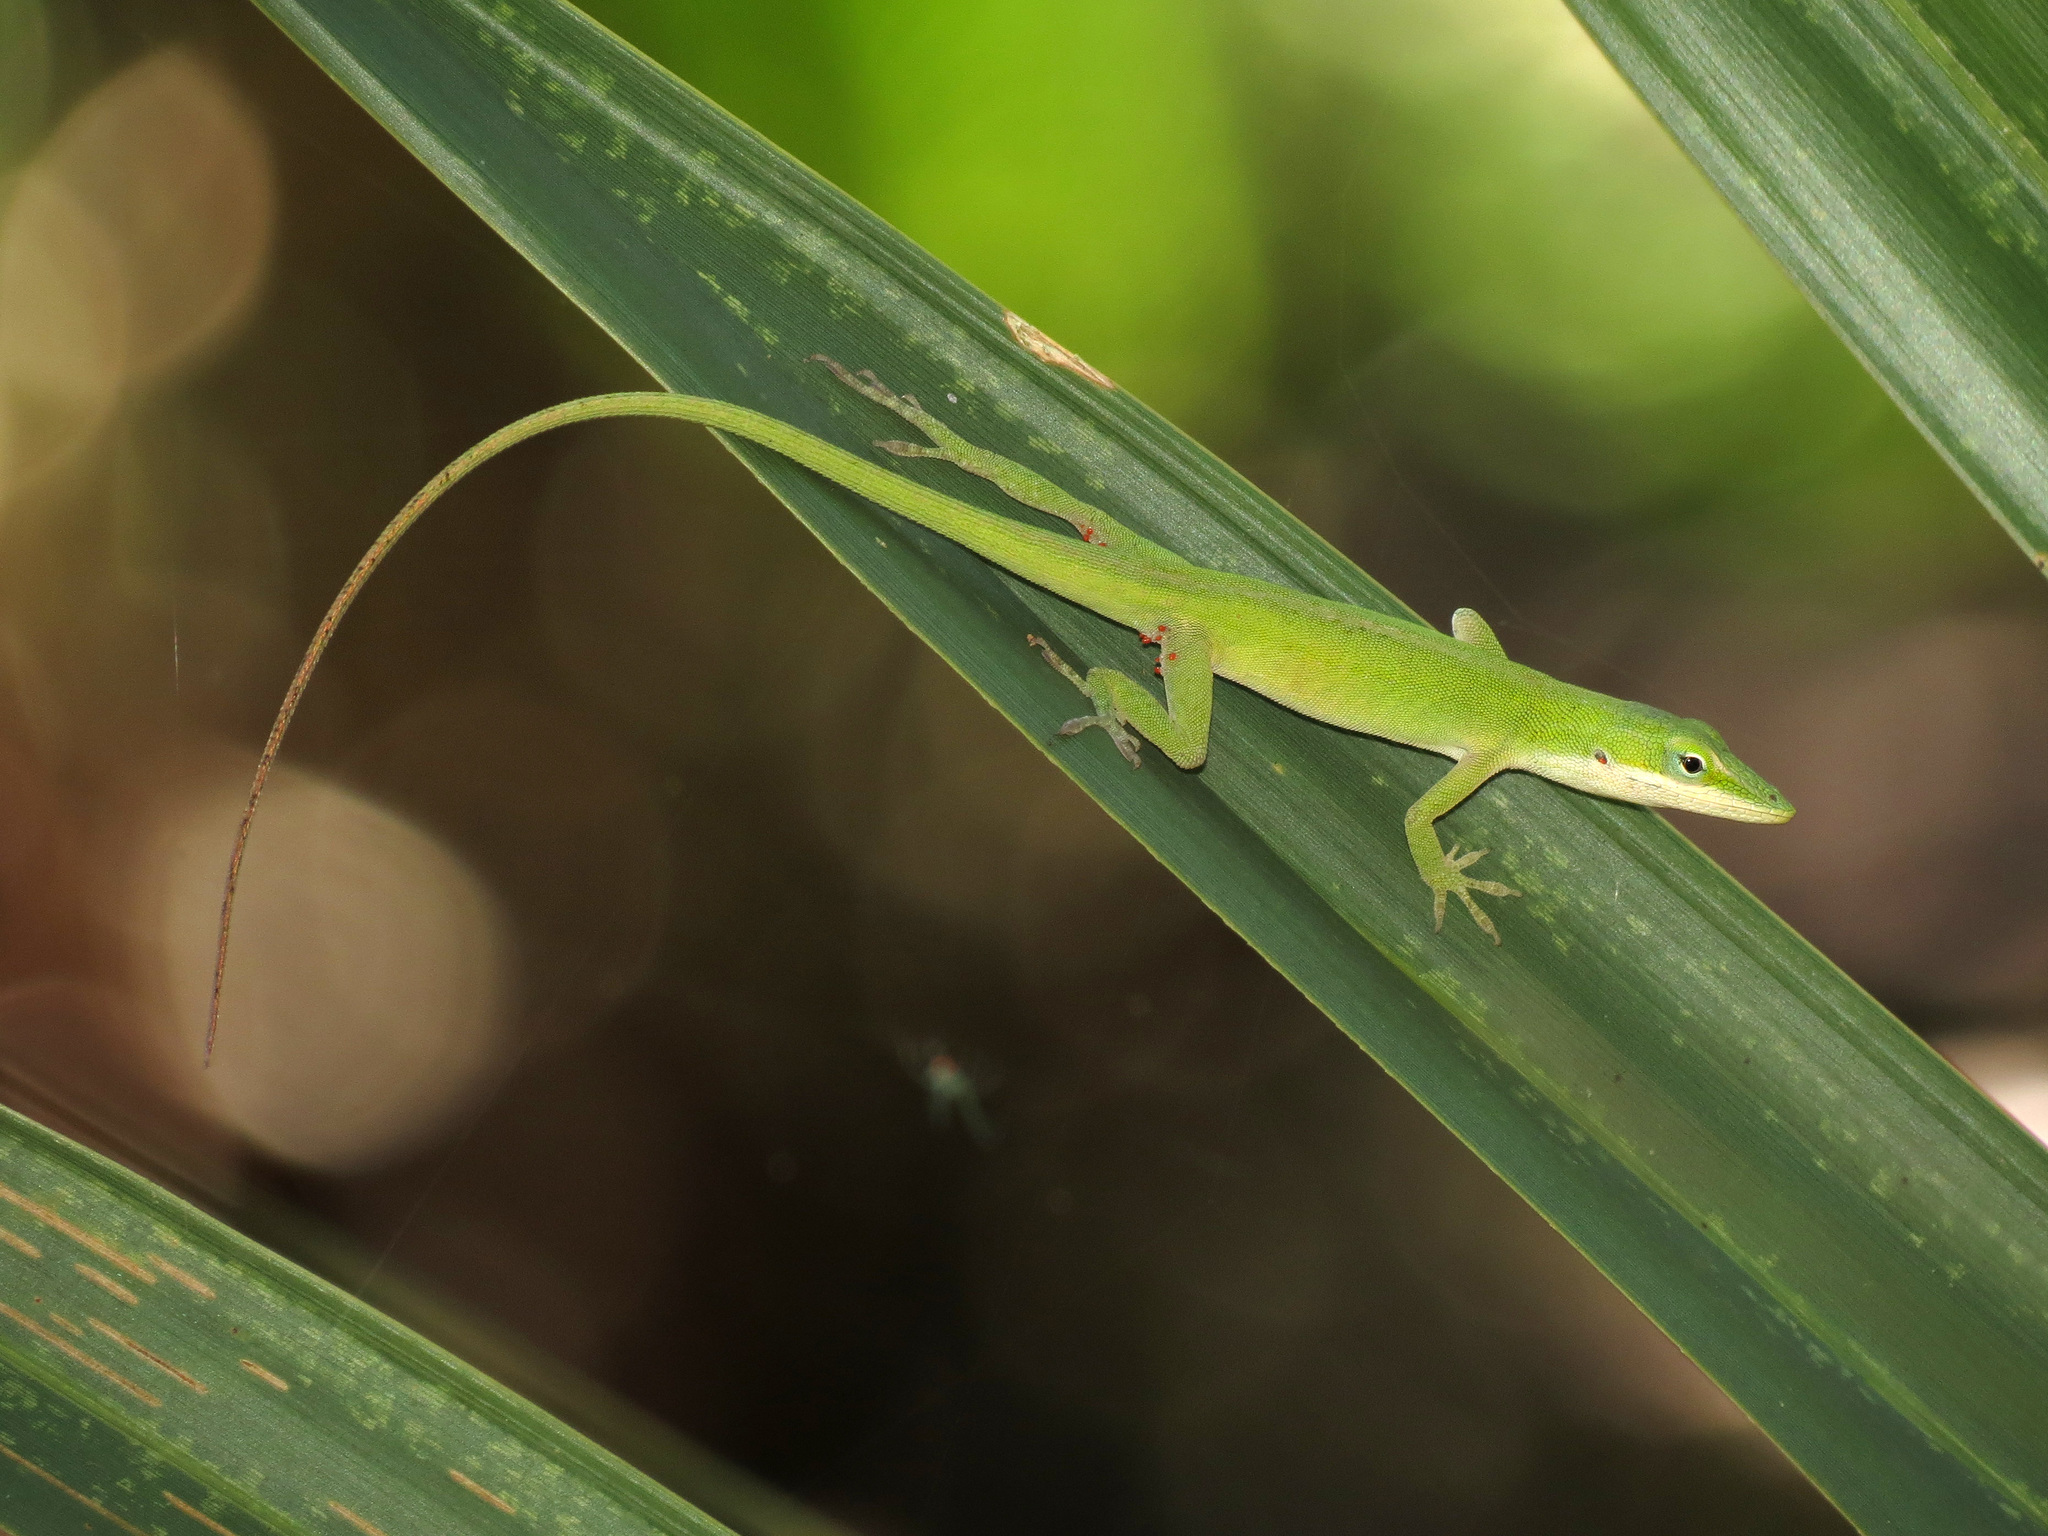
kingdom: Animalia
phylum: Chordata
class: Squamata
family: Dactyloidae
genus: Anolis
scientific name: Anolis carolinensis
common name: Green anole
